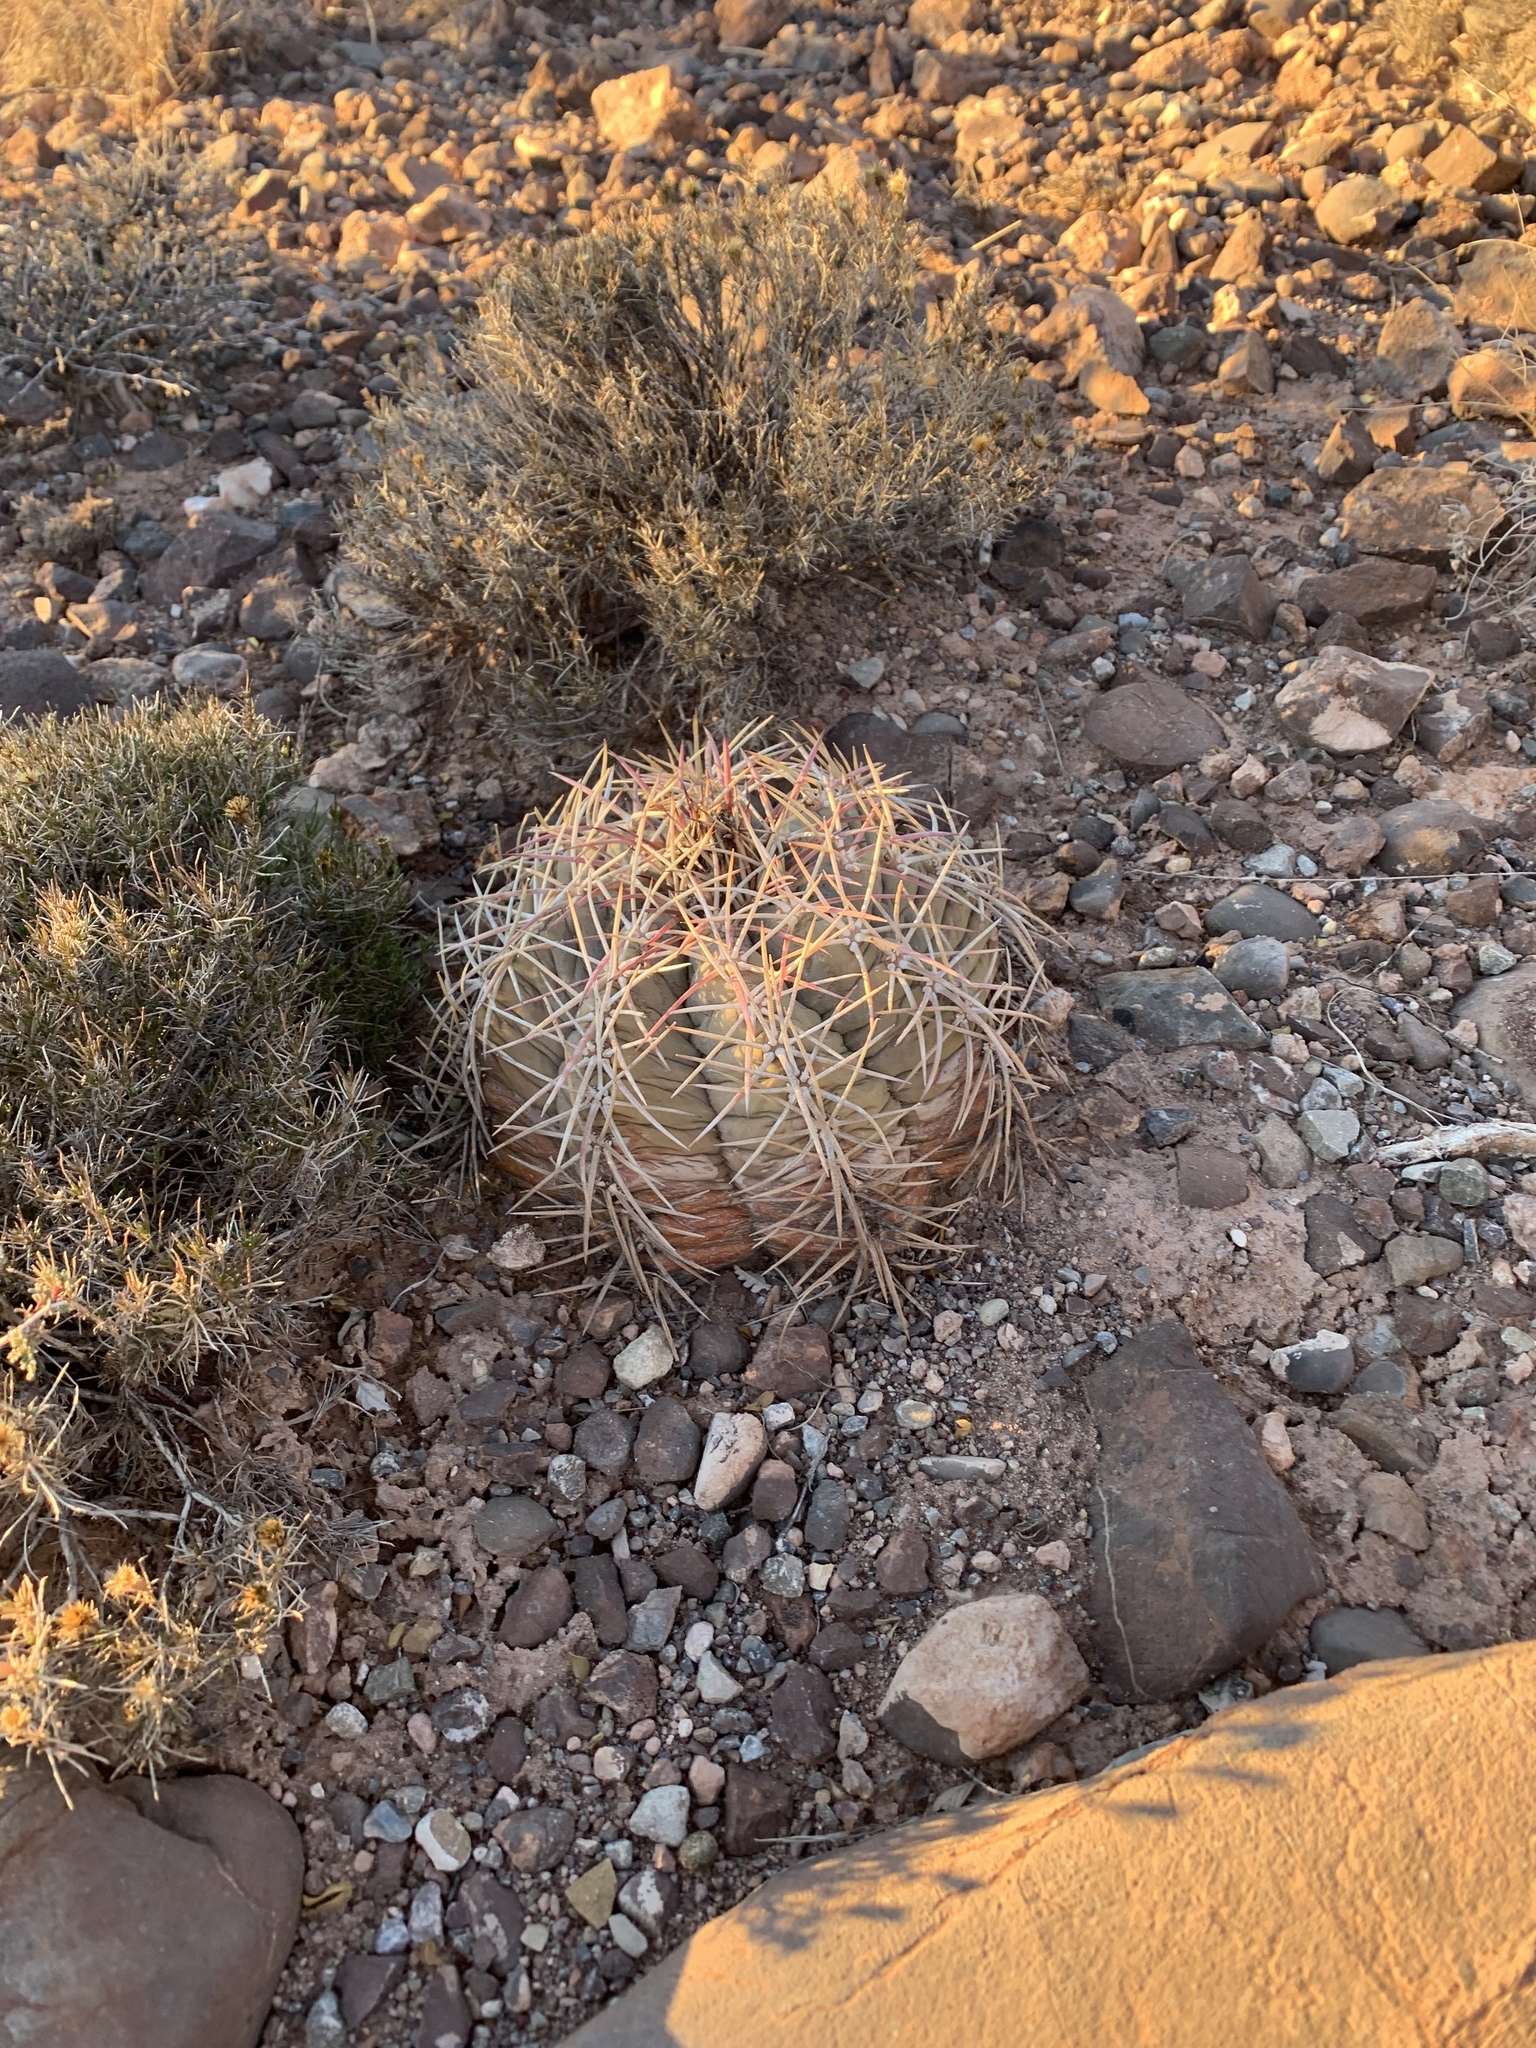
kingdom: Plantae
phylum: Tracheophyta
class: Magnoliopsida
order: Caryophyllales
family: Cactaceae
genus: Echinocactus
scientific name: Echinocactus horizonthalonius
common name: Devilshead
